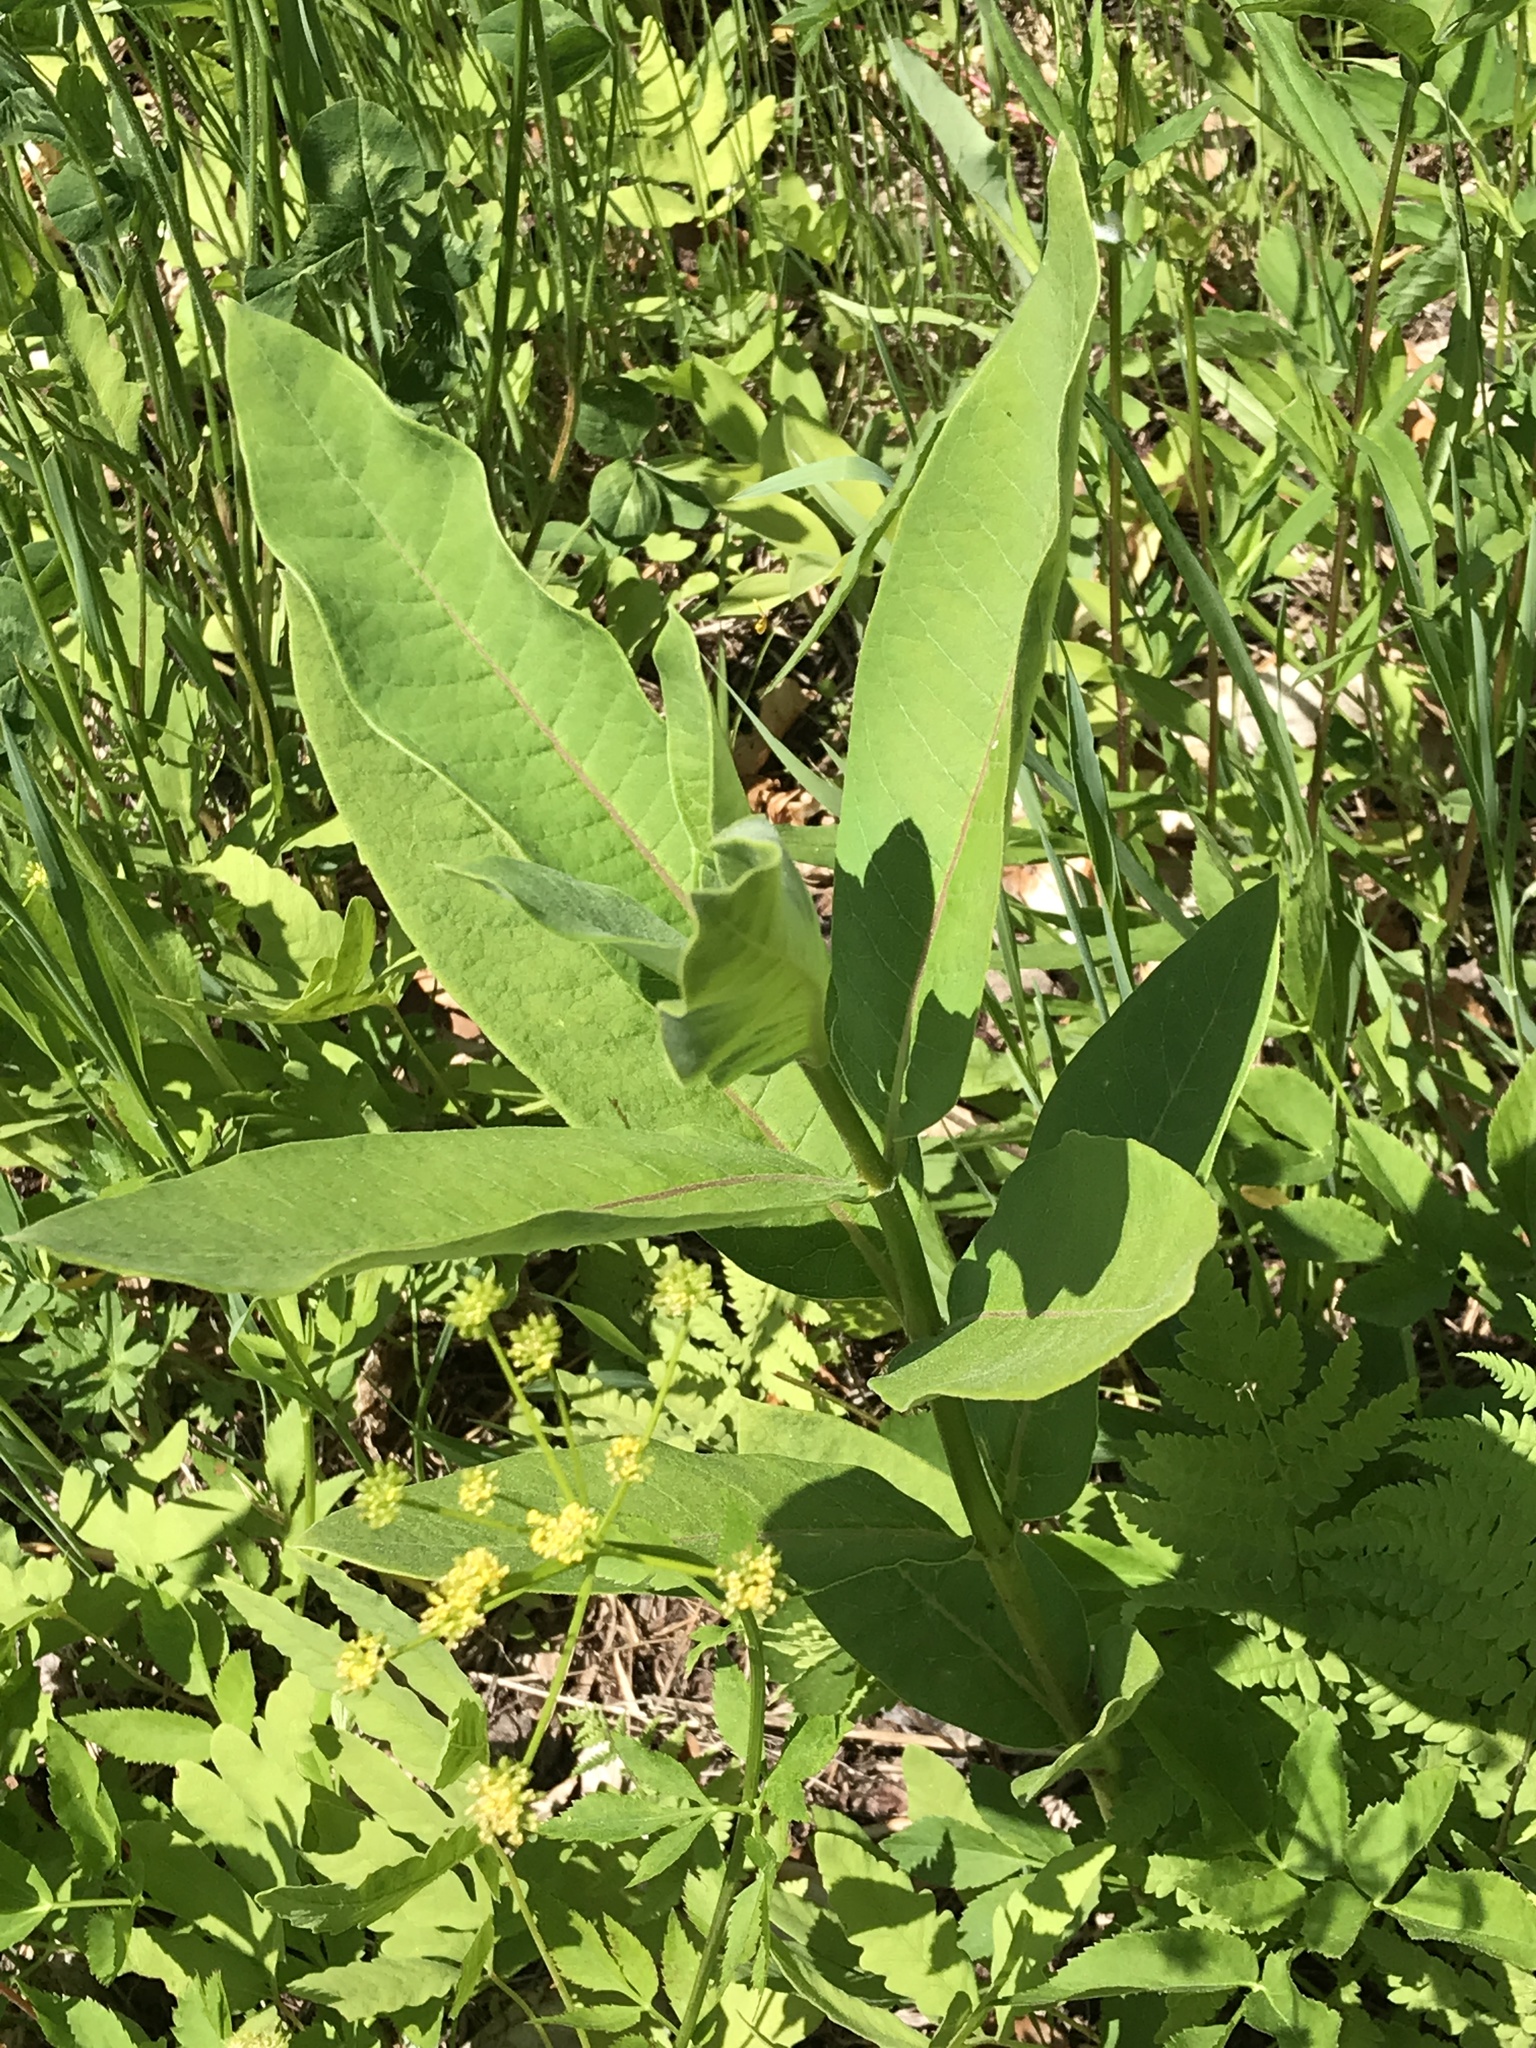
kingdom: Plantae
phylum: Tracheophyta
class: Magnoliopsida
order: Gentianales
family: Apocynaceae
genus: Asclepias
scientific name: Asclepias syriaca
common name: Common milkweed
